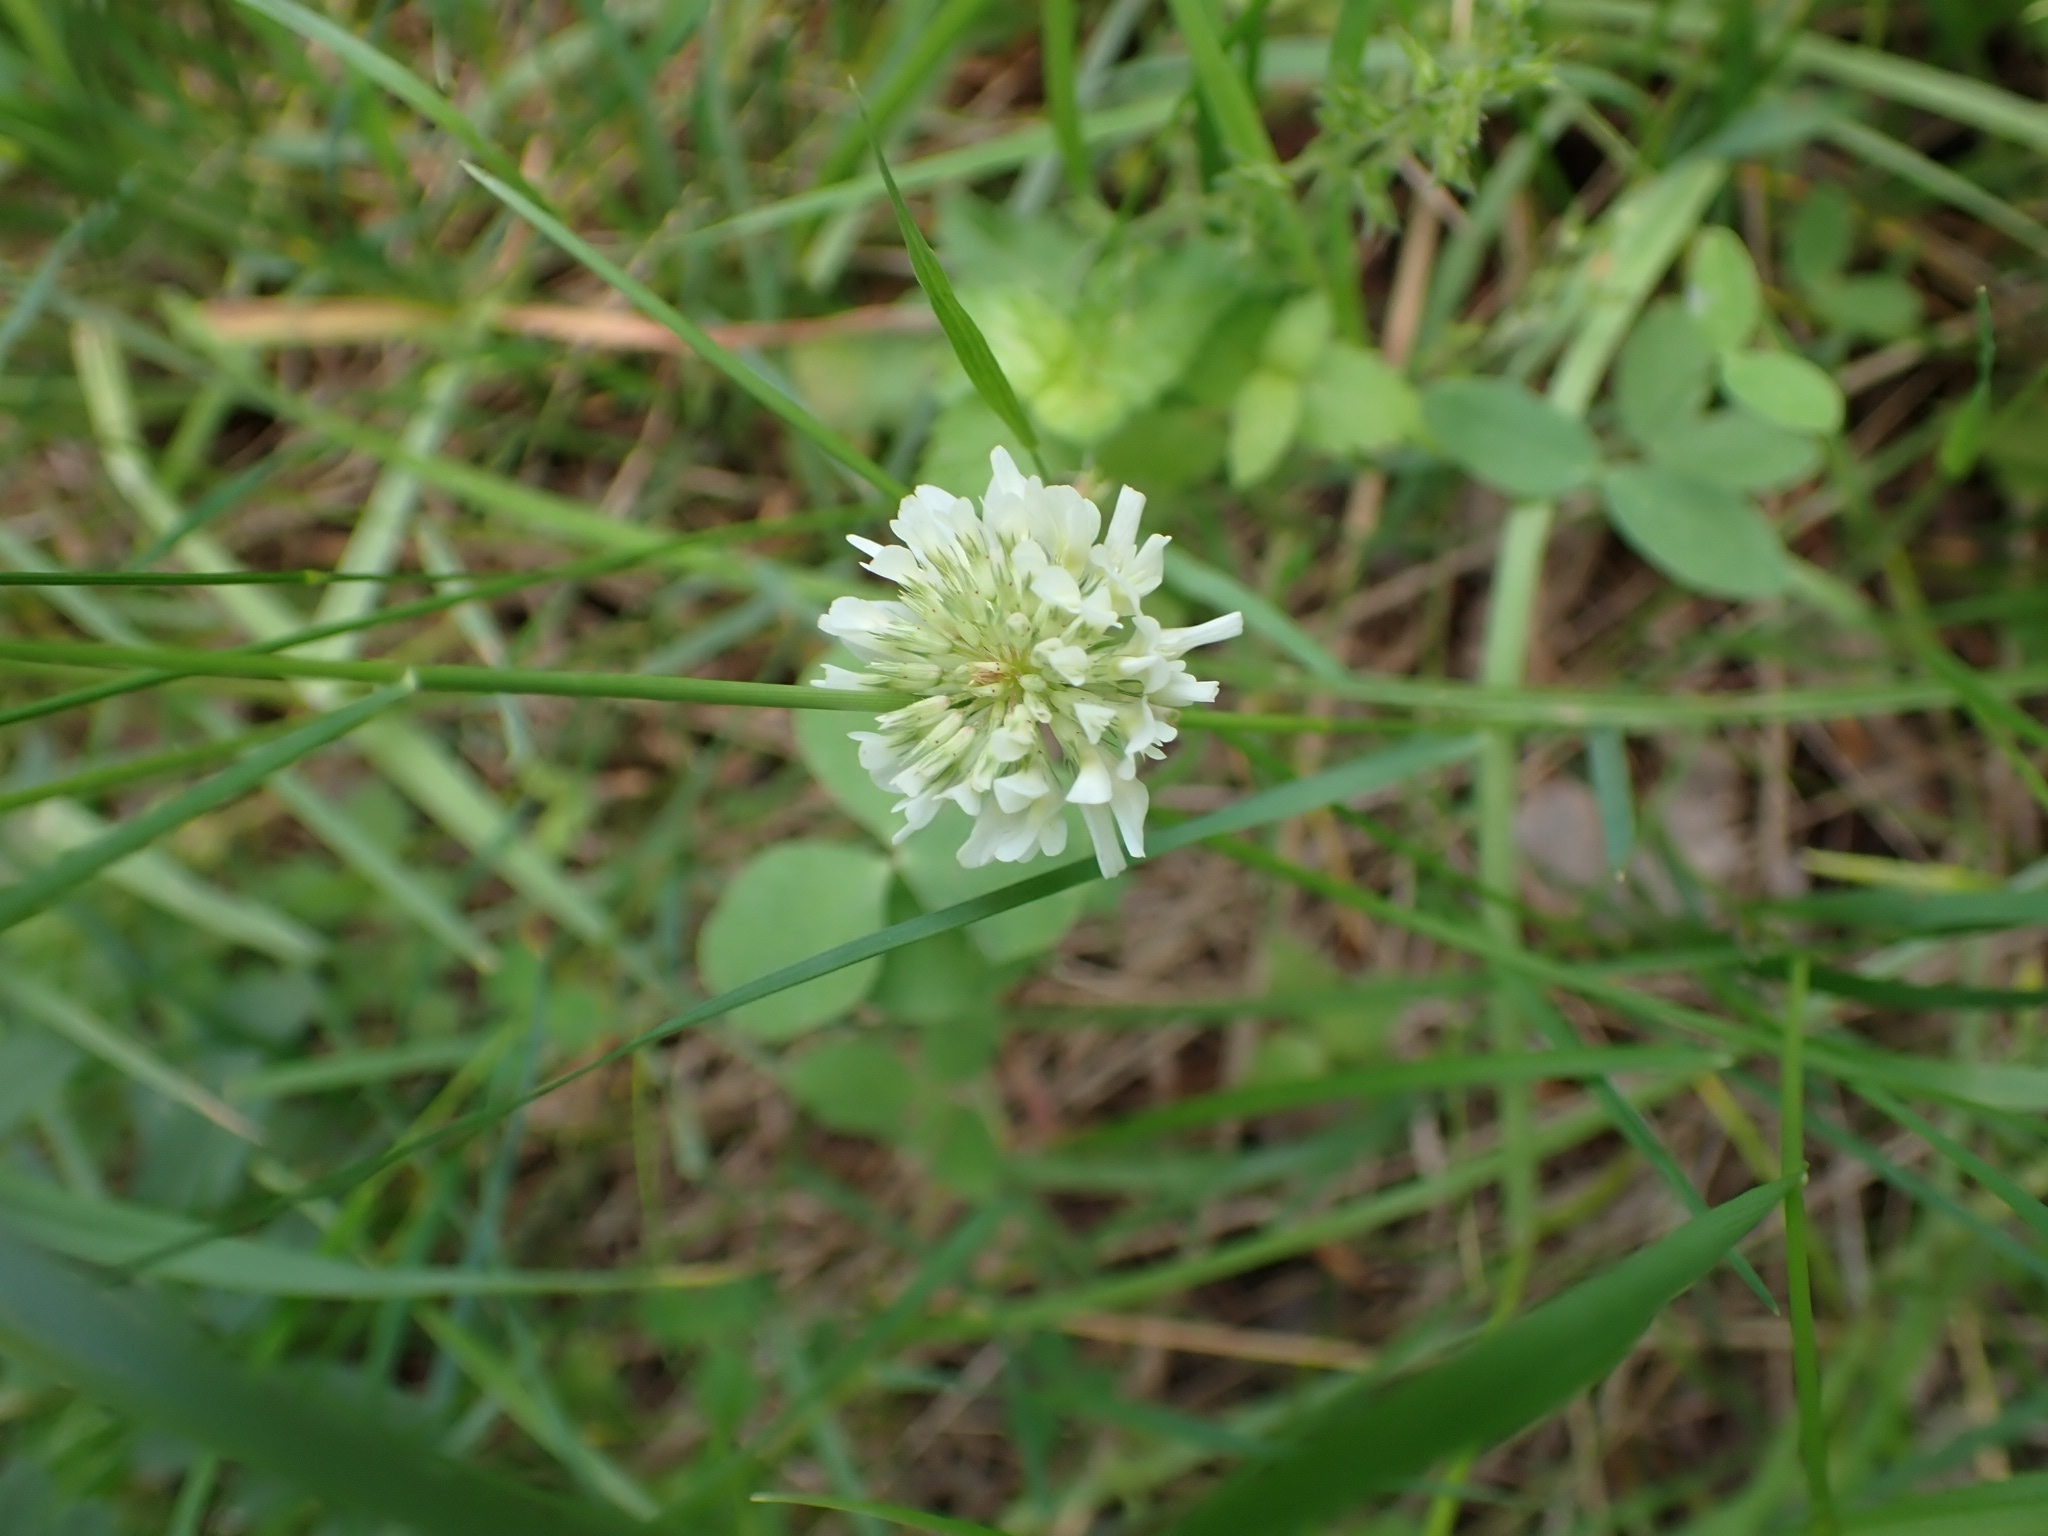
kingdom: Plantae
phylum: Tracheophyta
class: Magnoliopsida
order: Fabales
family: Fabaceae
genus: Trifolium
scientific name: Trifolium repens
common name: White clover
